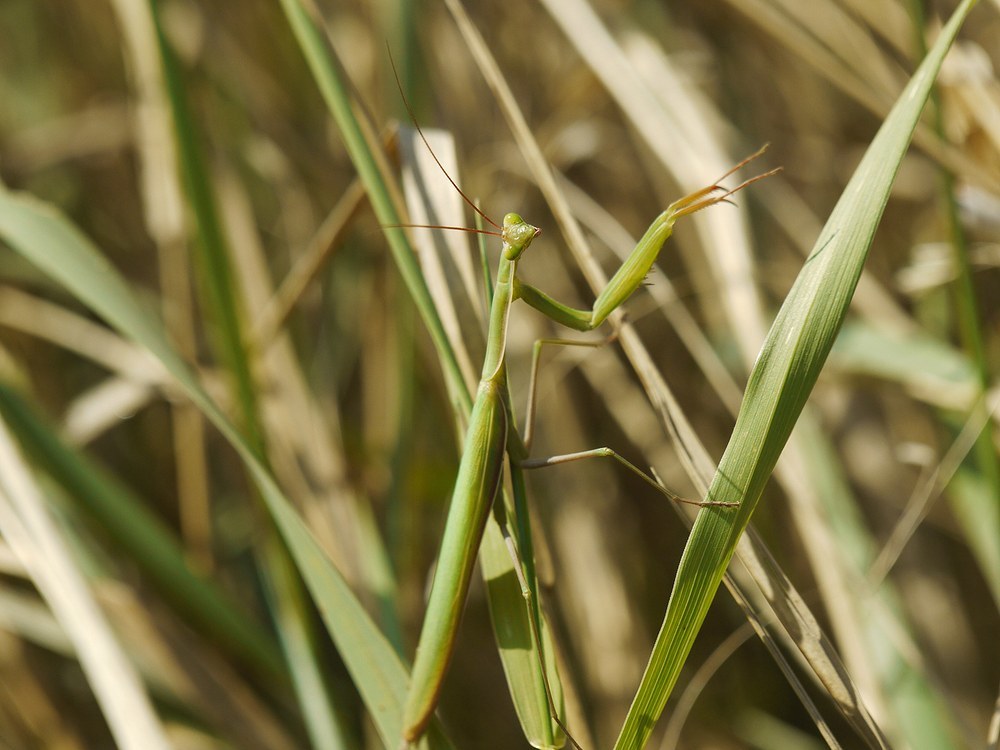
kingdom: Animalia
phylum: Arthropoda
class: Insecta
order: Mantodea
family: Mantidae
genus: Mantis
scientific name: Mantis religiosa
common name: Praying mantis
